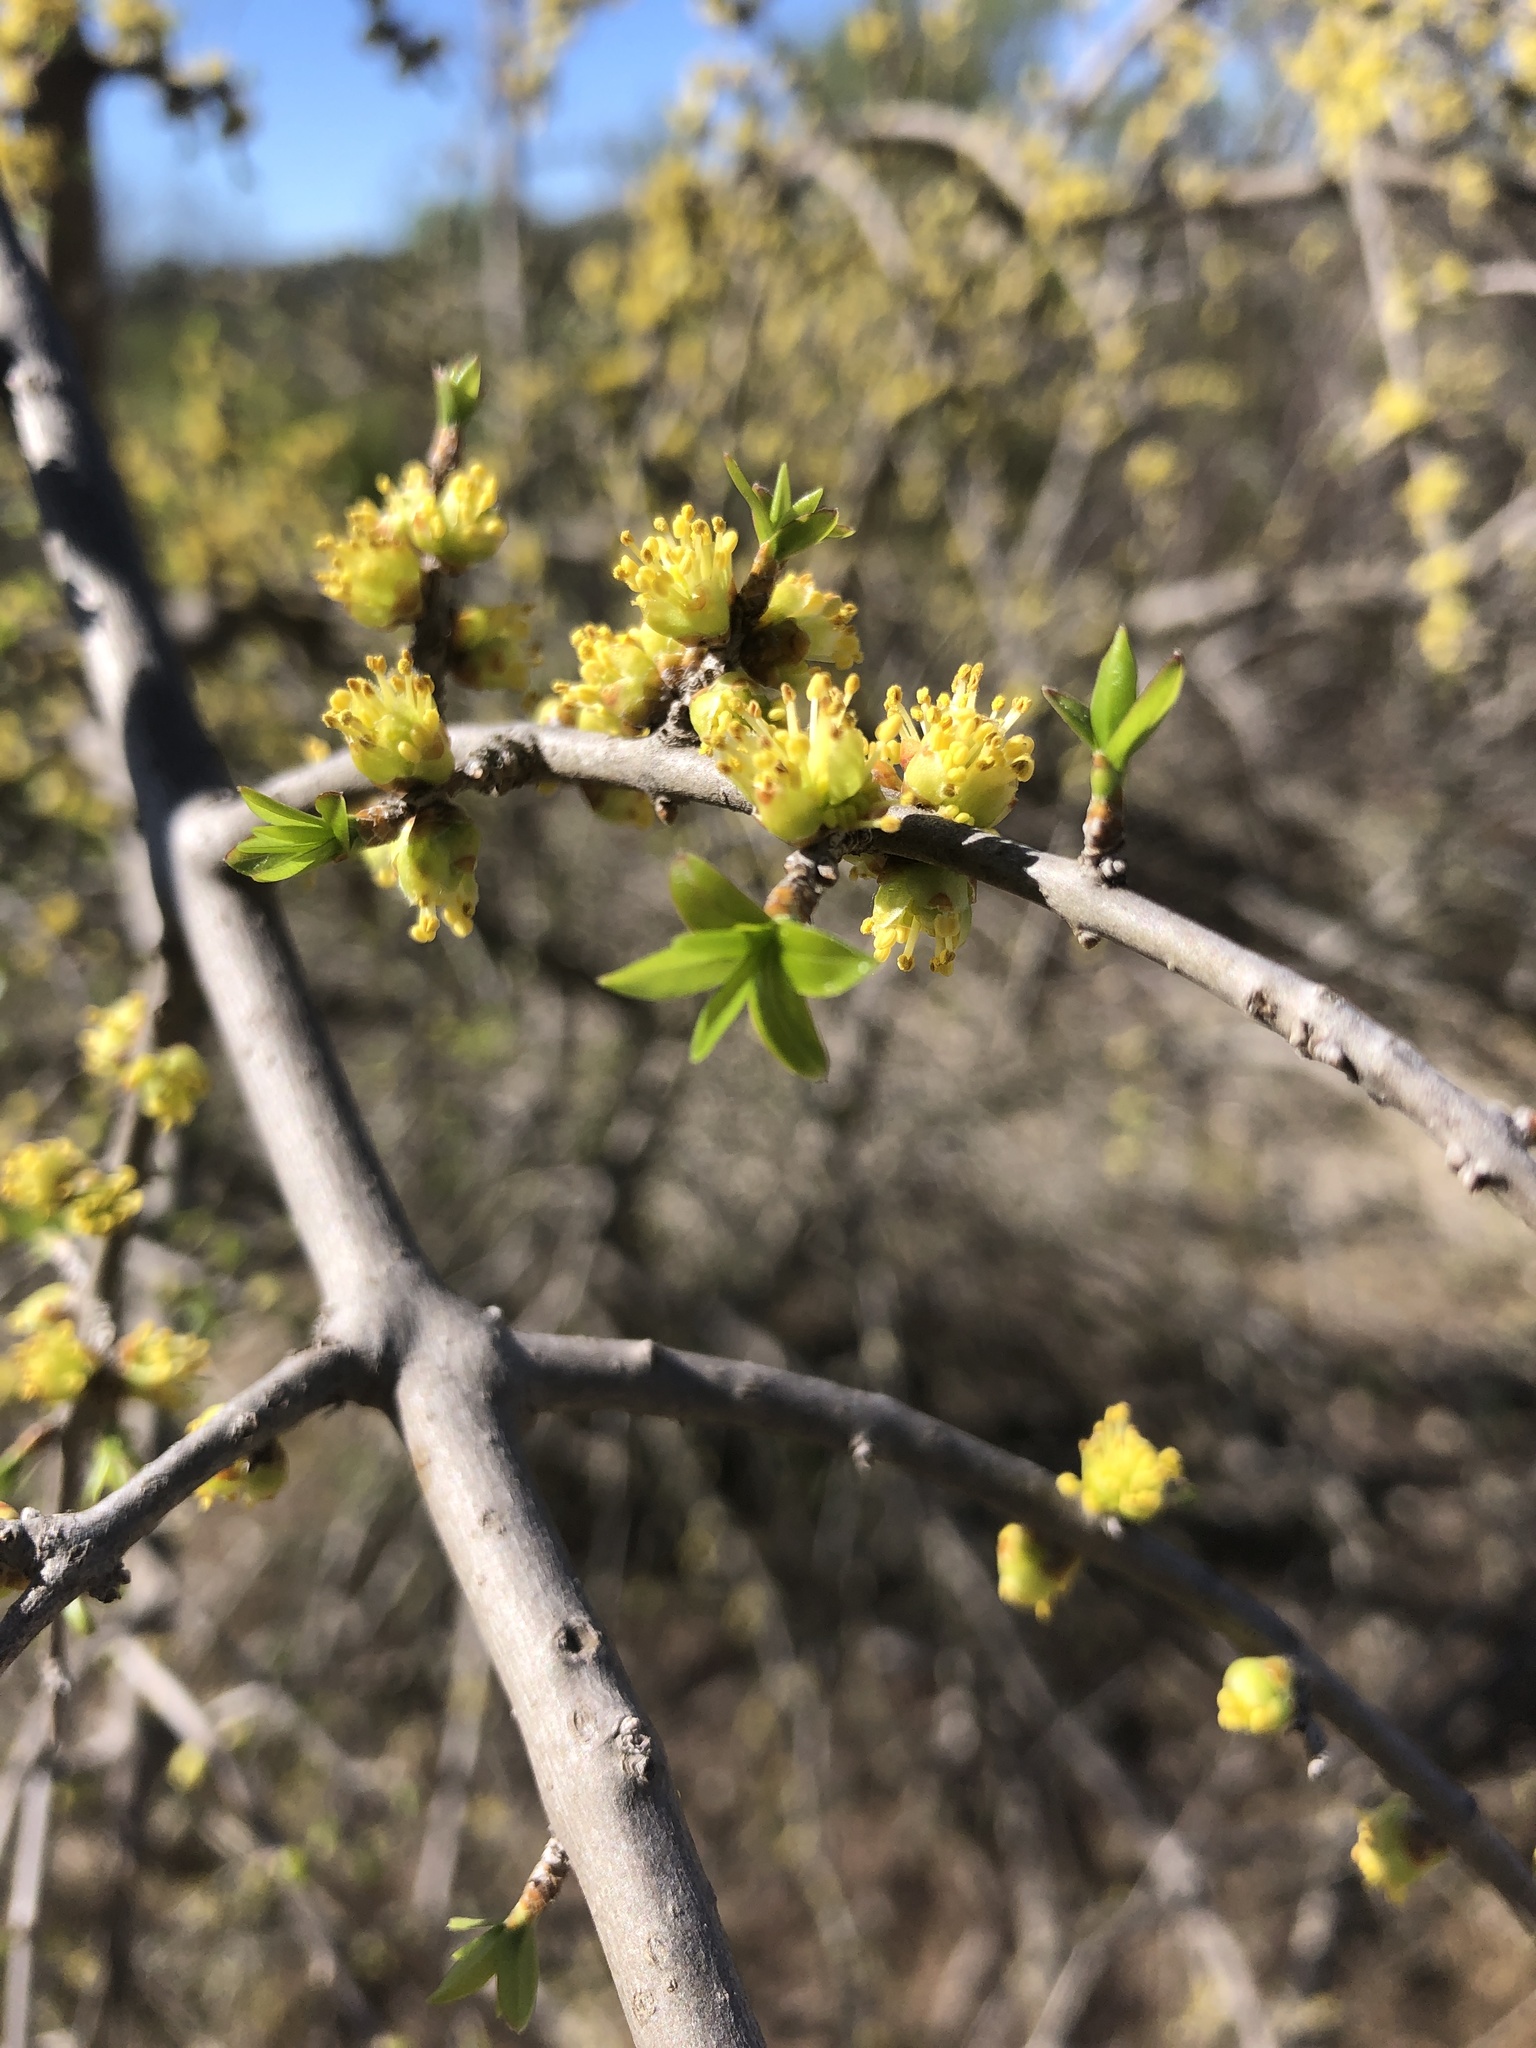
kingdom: Plantae
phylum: Tracheophyta
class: Magnoliopsida
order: Lamiales
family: Oleaceae
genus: Forestiera
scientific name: Forestiera pubescens
